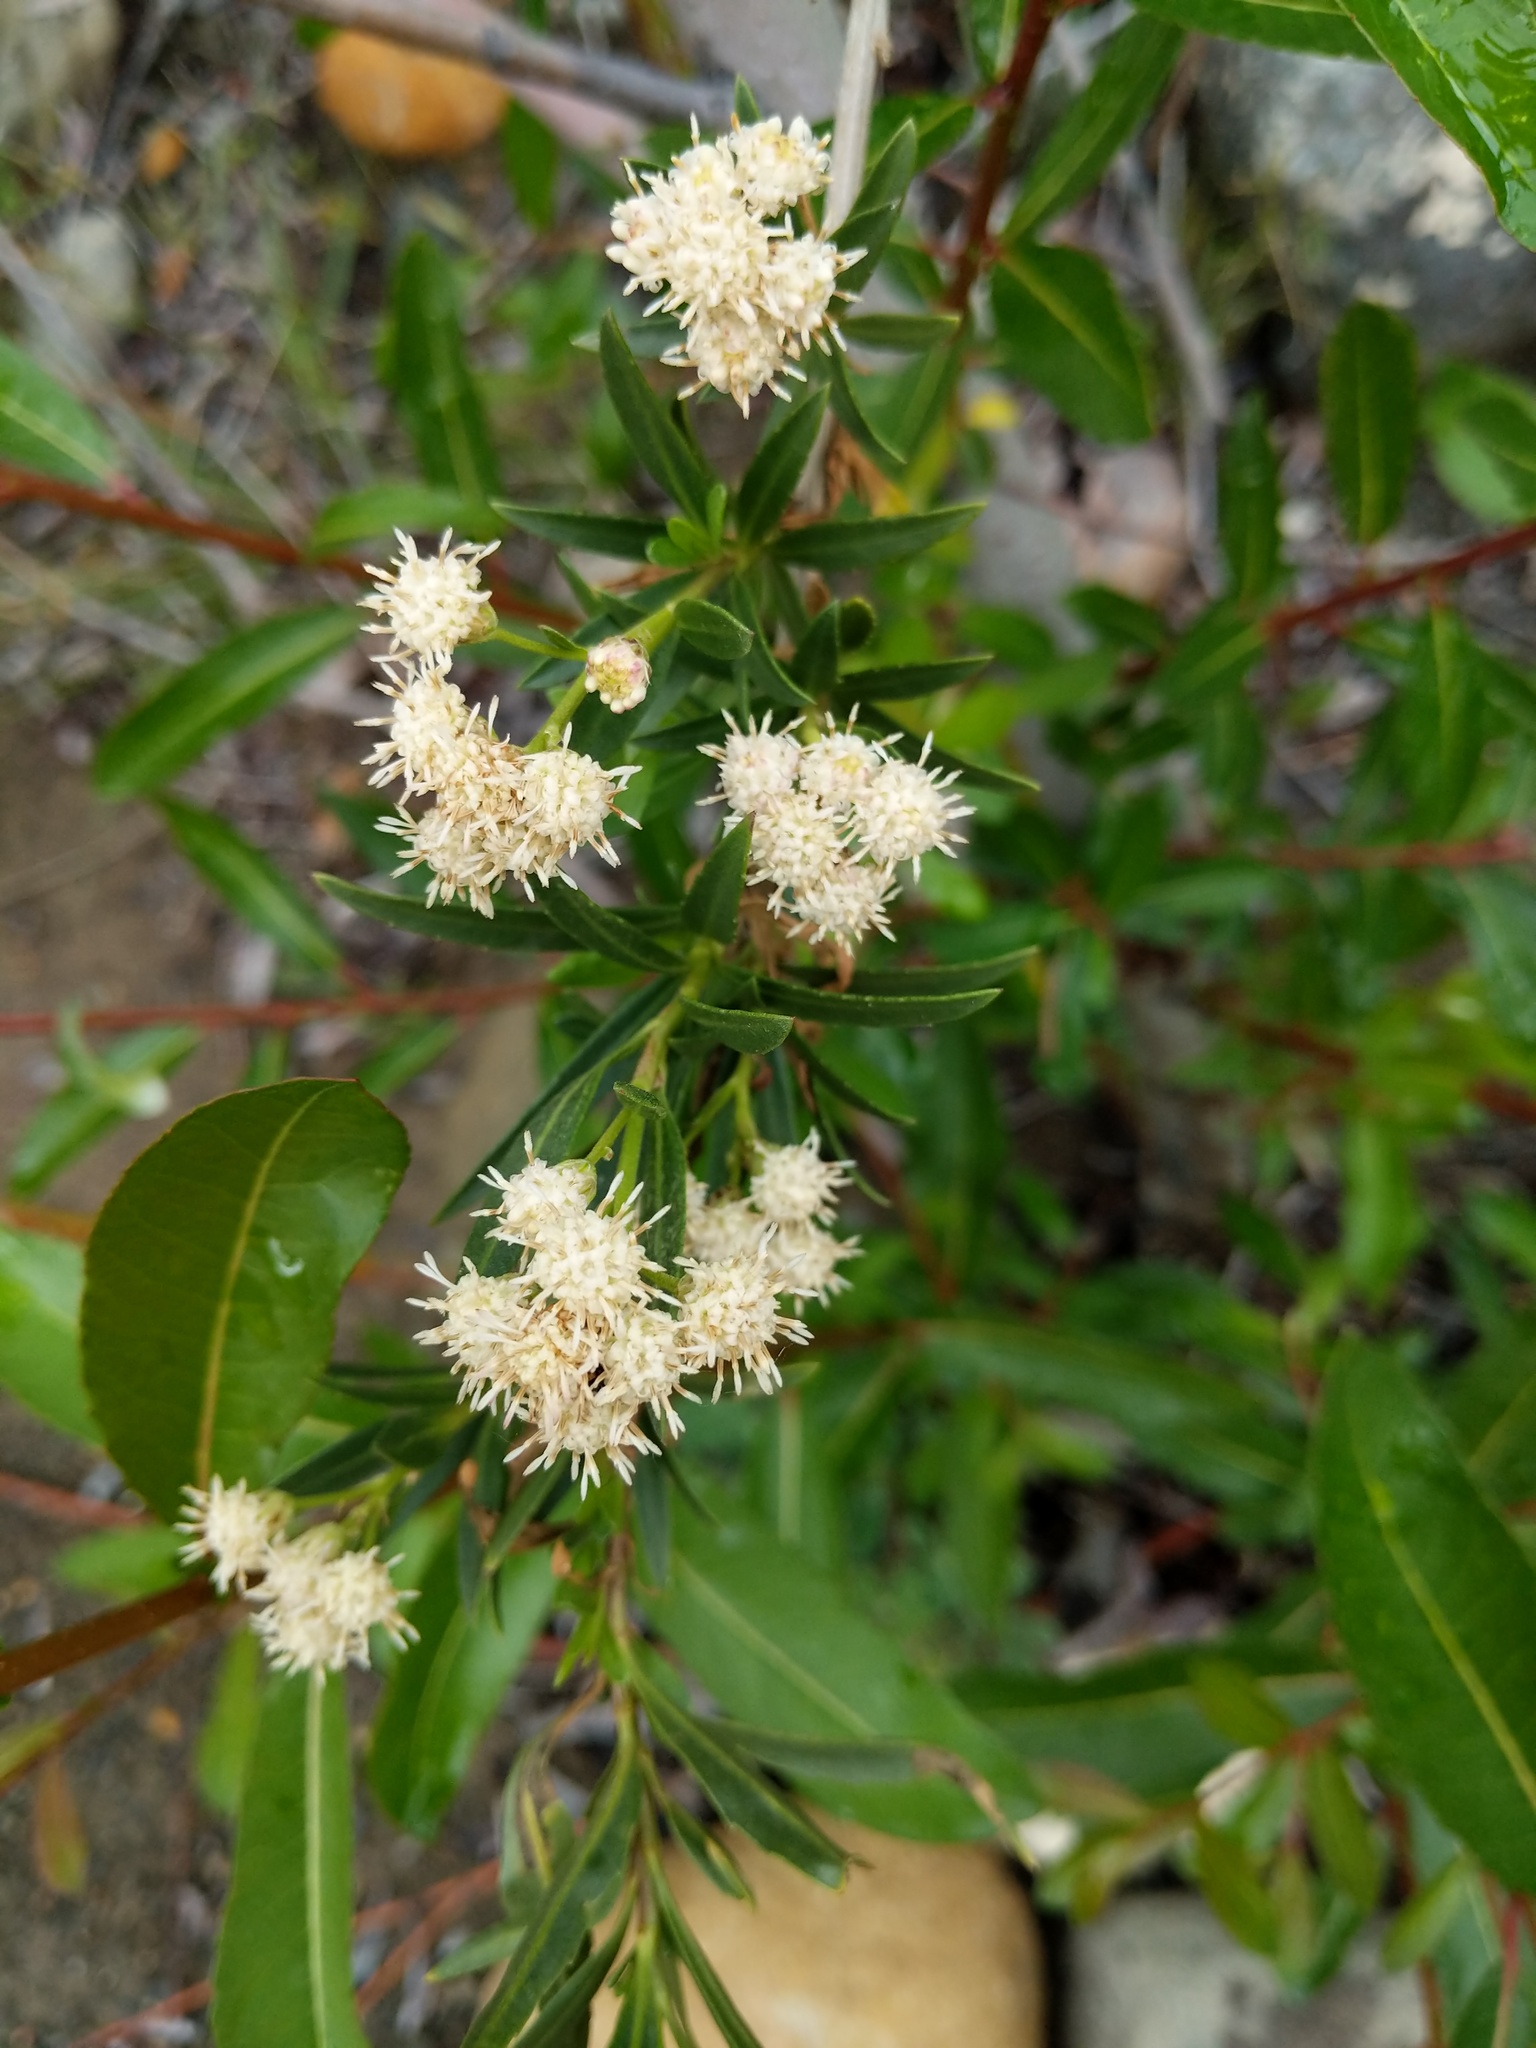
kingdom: Plantae
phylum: Tracheophyta
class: Magnoliopsida
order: Asterales
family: Asteraceae
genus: Baccharis
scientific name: Baccharis salicifolia
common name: Sticky baccharis
